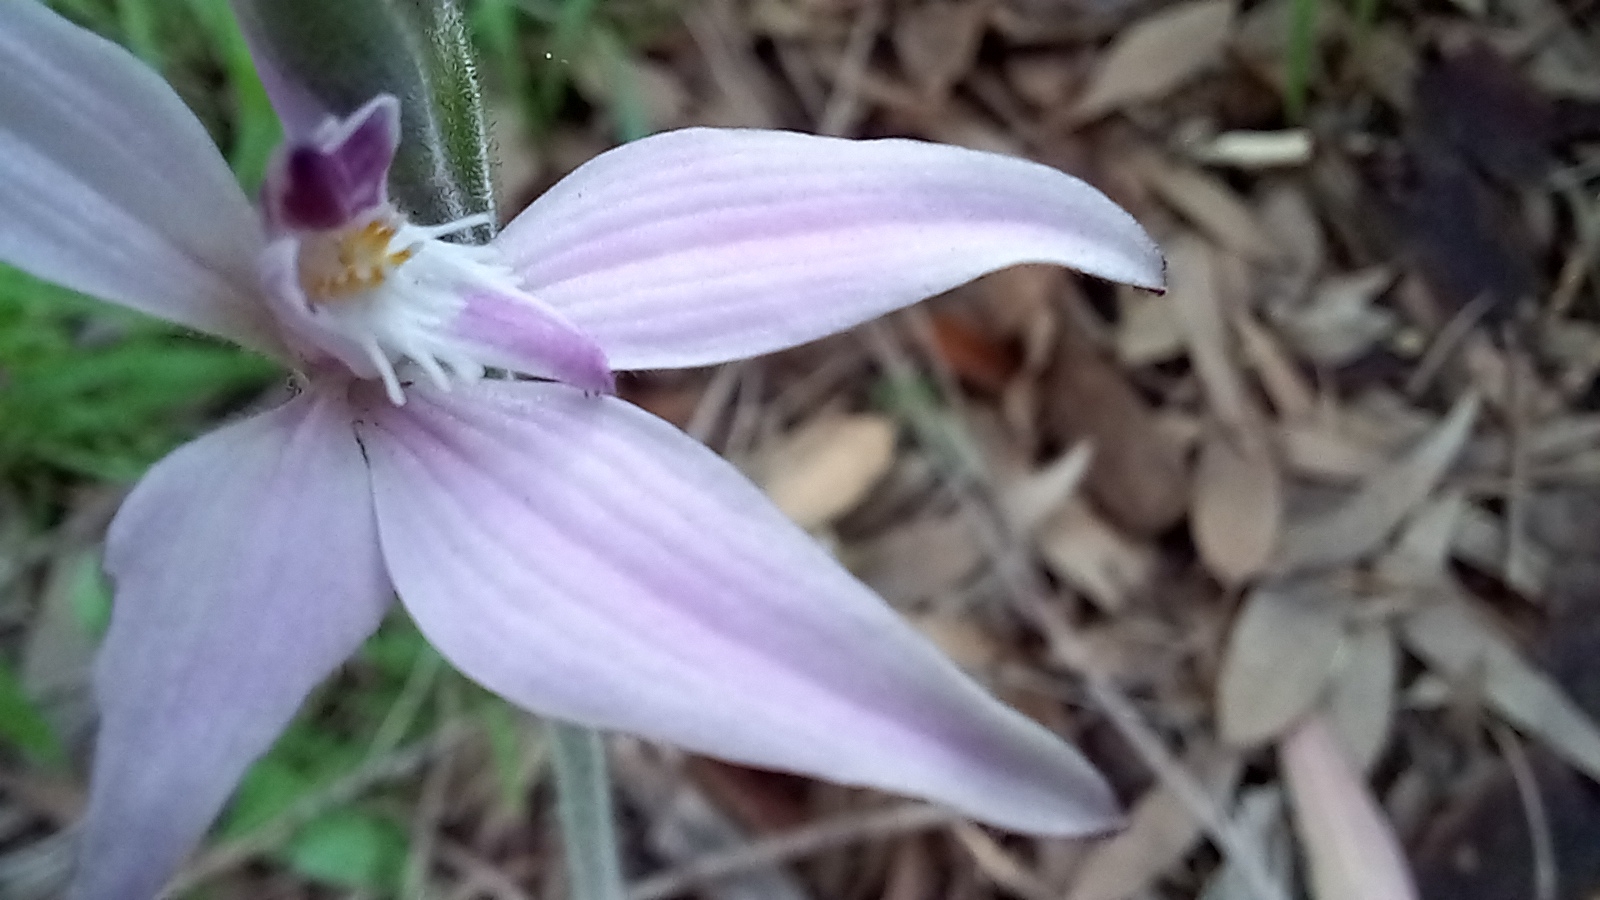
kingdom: Plantae
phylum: Tracheophyta
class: Liliopsida
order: Asparagales
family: Orchidaceae
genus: Caladenia
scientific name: Caladenia latifolia
